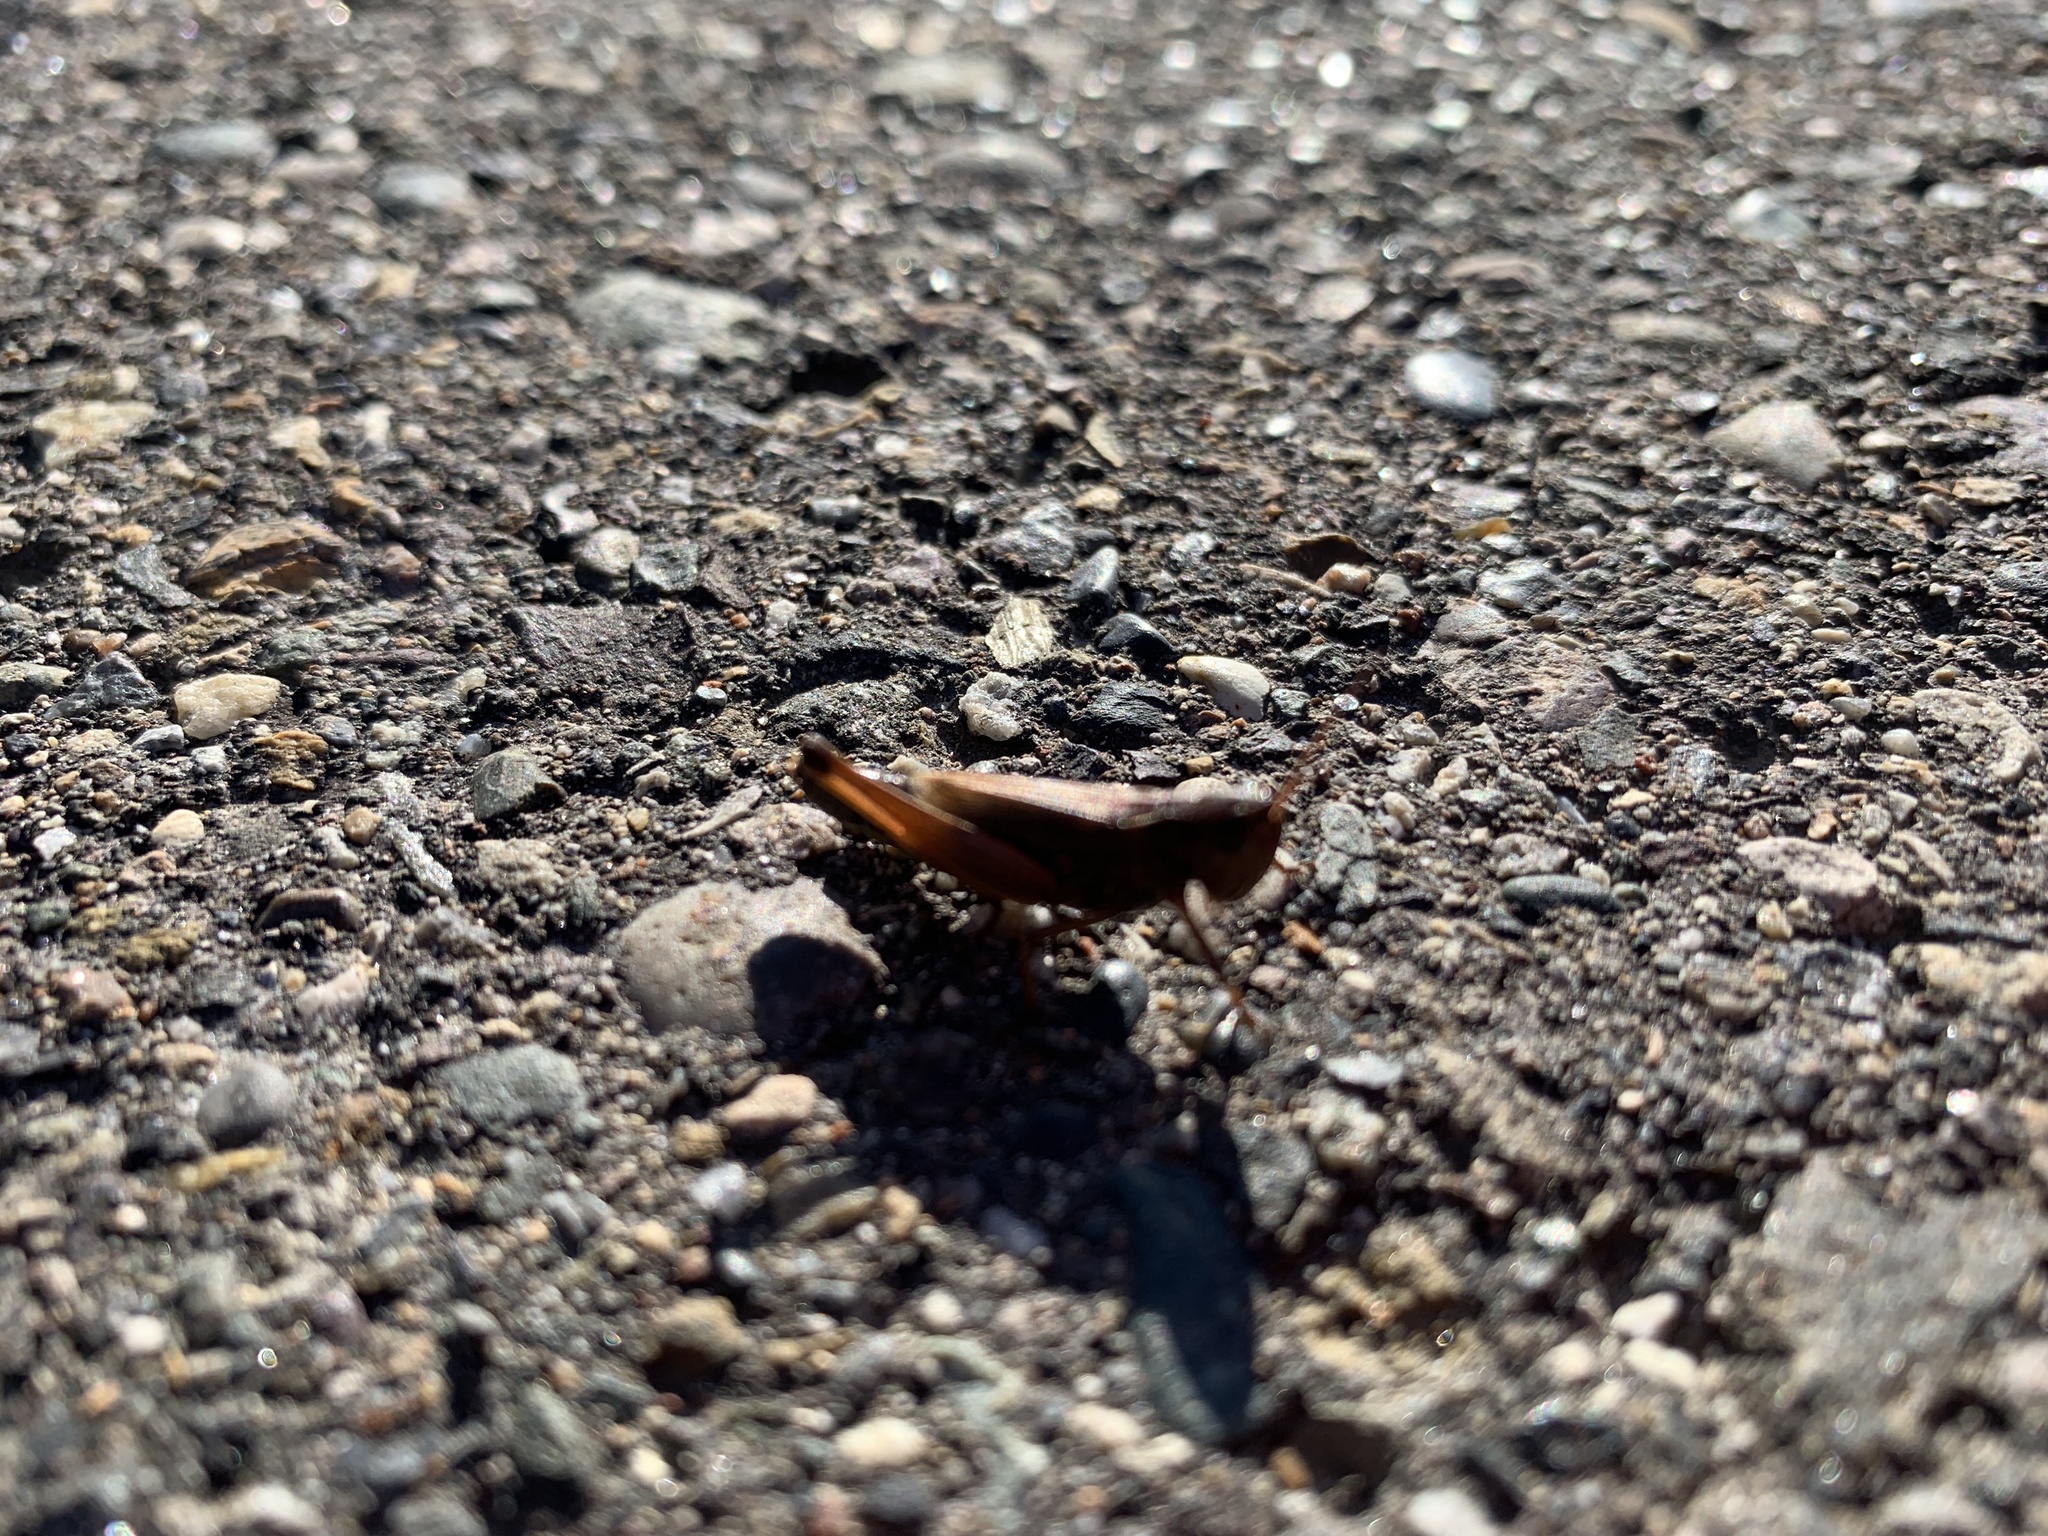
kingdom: Animalia
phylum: Arthropoda
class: Insecta
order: Orthoptera
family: Acrididae
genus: Pseudochorthippus
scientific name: Pseudochorthippus curtipennis
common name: Marsh meadow grasshopper
